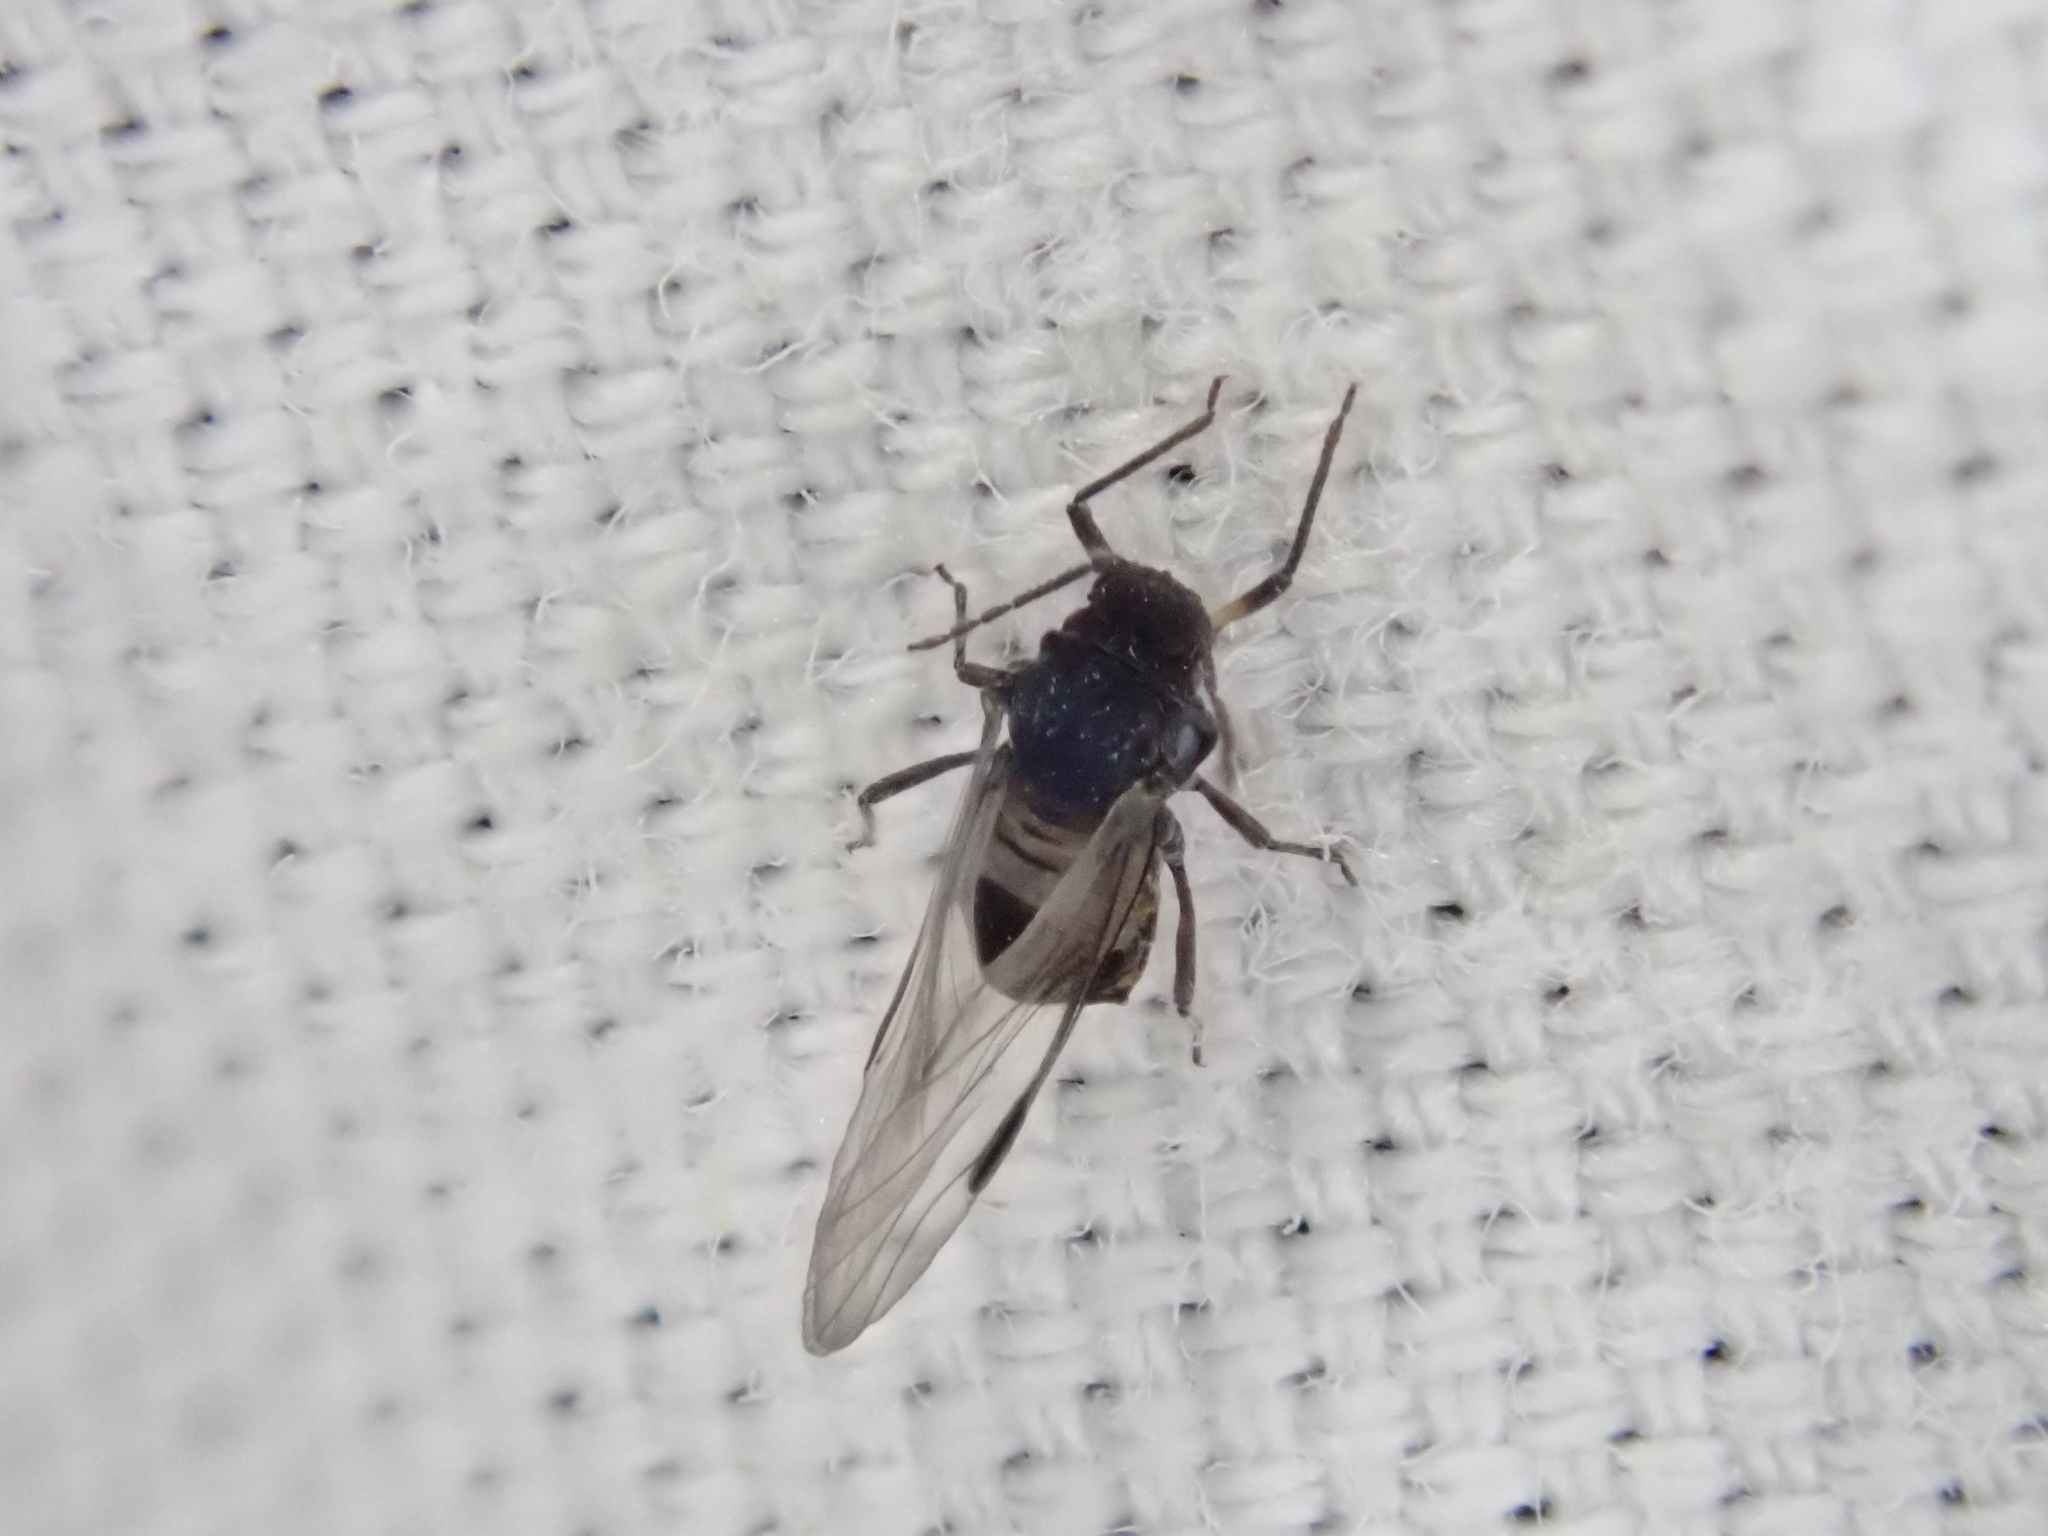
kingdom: Animalia
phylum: Arthropoda
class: Insecta
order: Hemiptera
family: Aphididae
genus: Anoecia
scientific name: Anoecia
